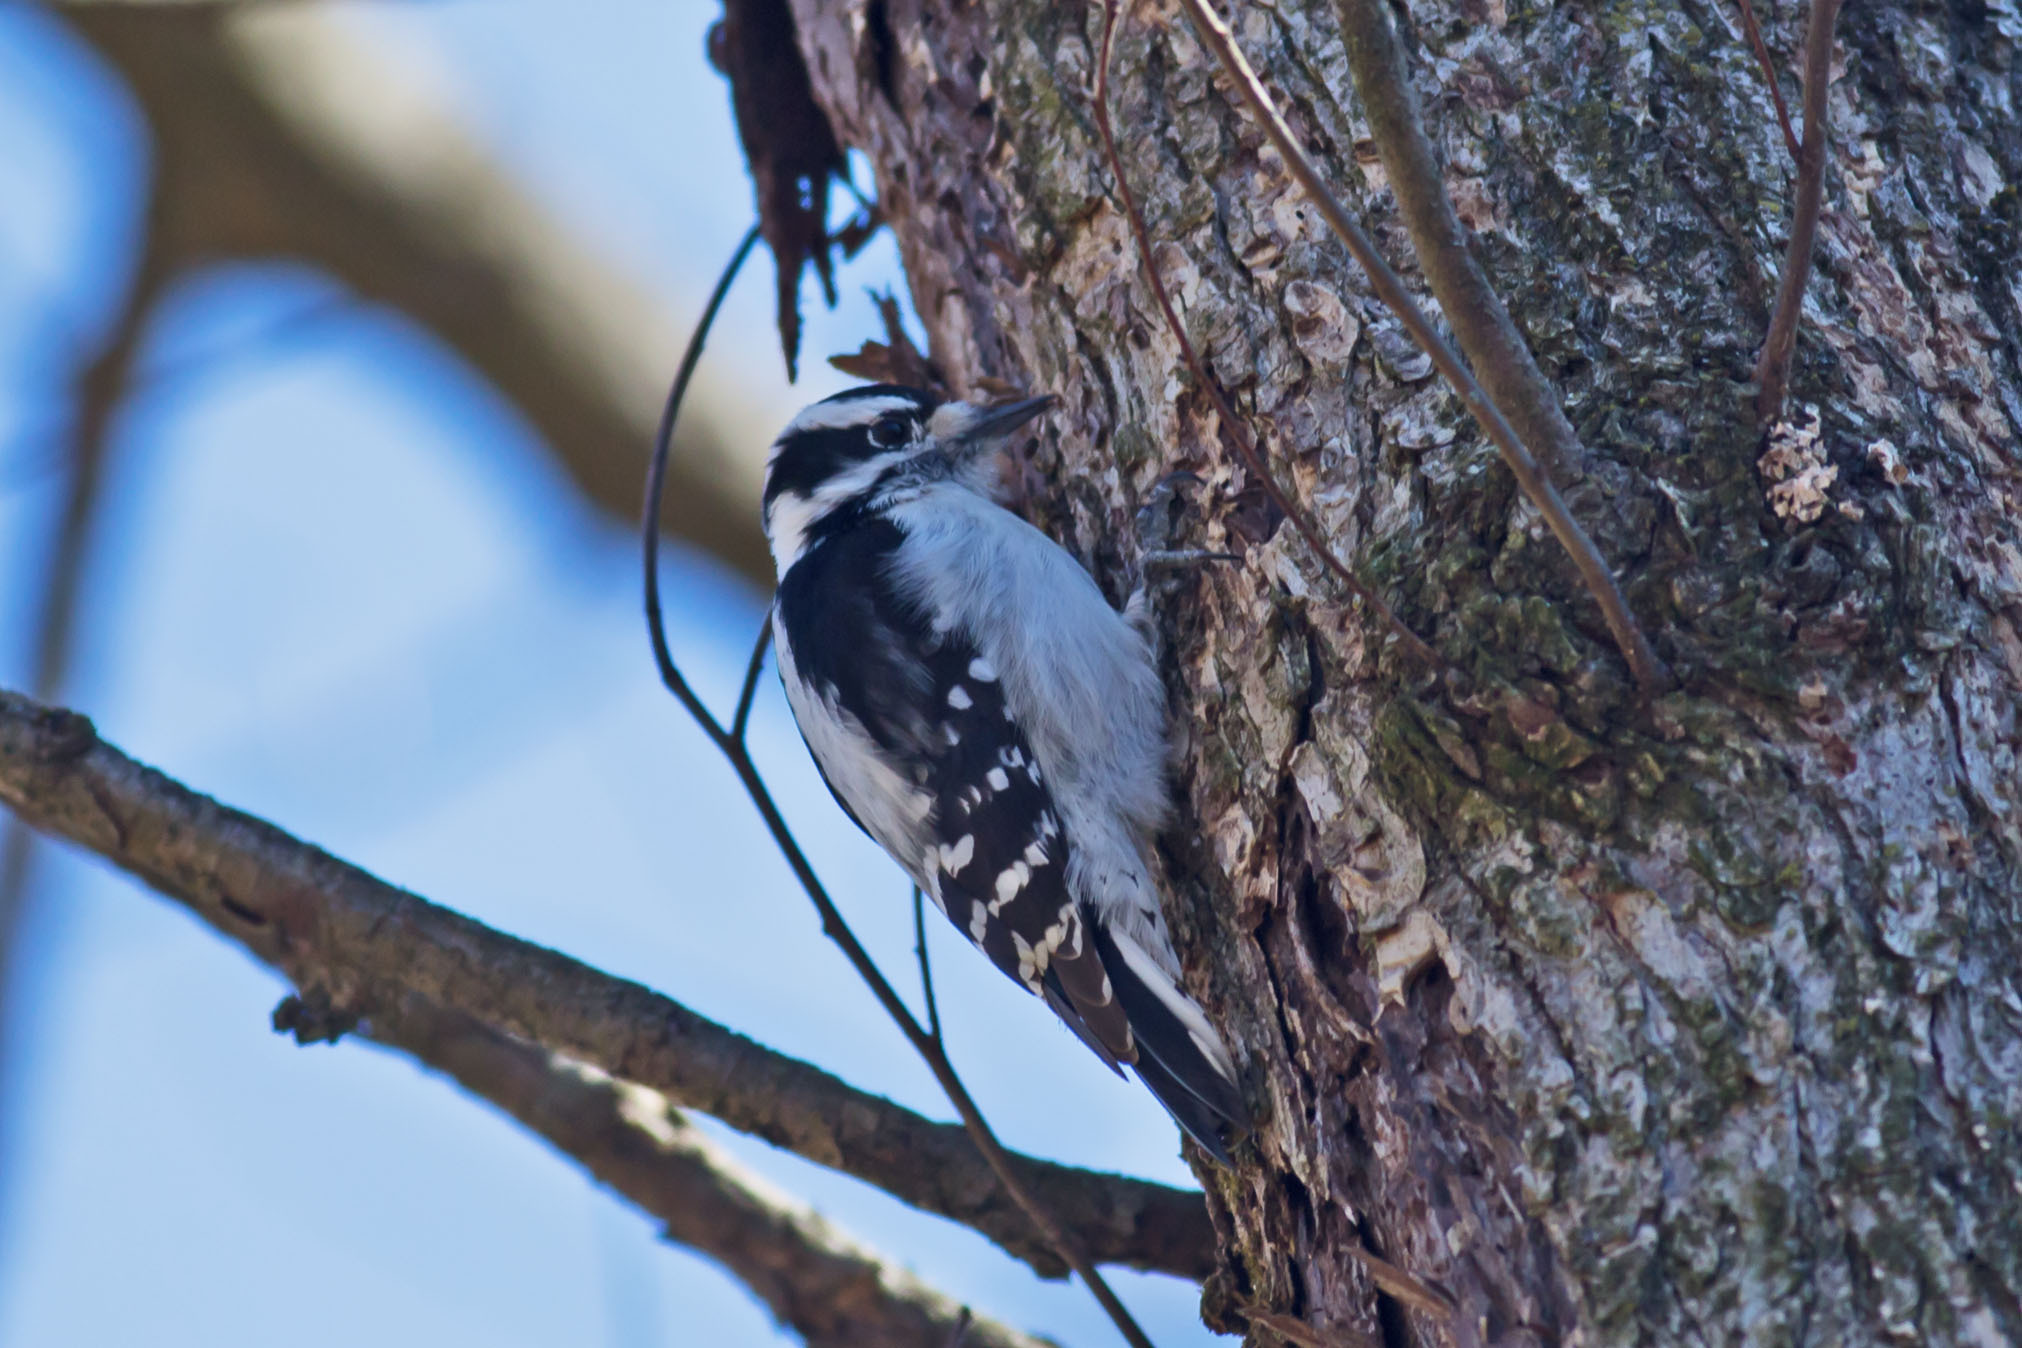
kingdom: Animalia
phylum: Chordata
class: Aves
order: Piciformes
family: Picidae
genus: Dryobates
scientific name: Dryobates pubescens
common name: Downy woodpecker
